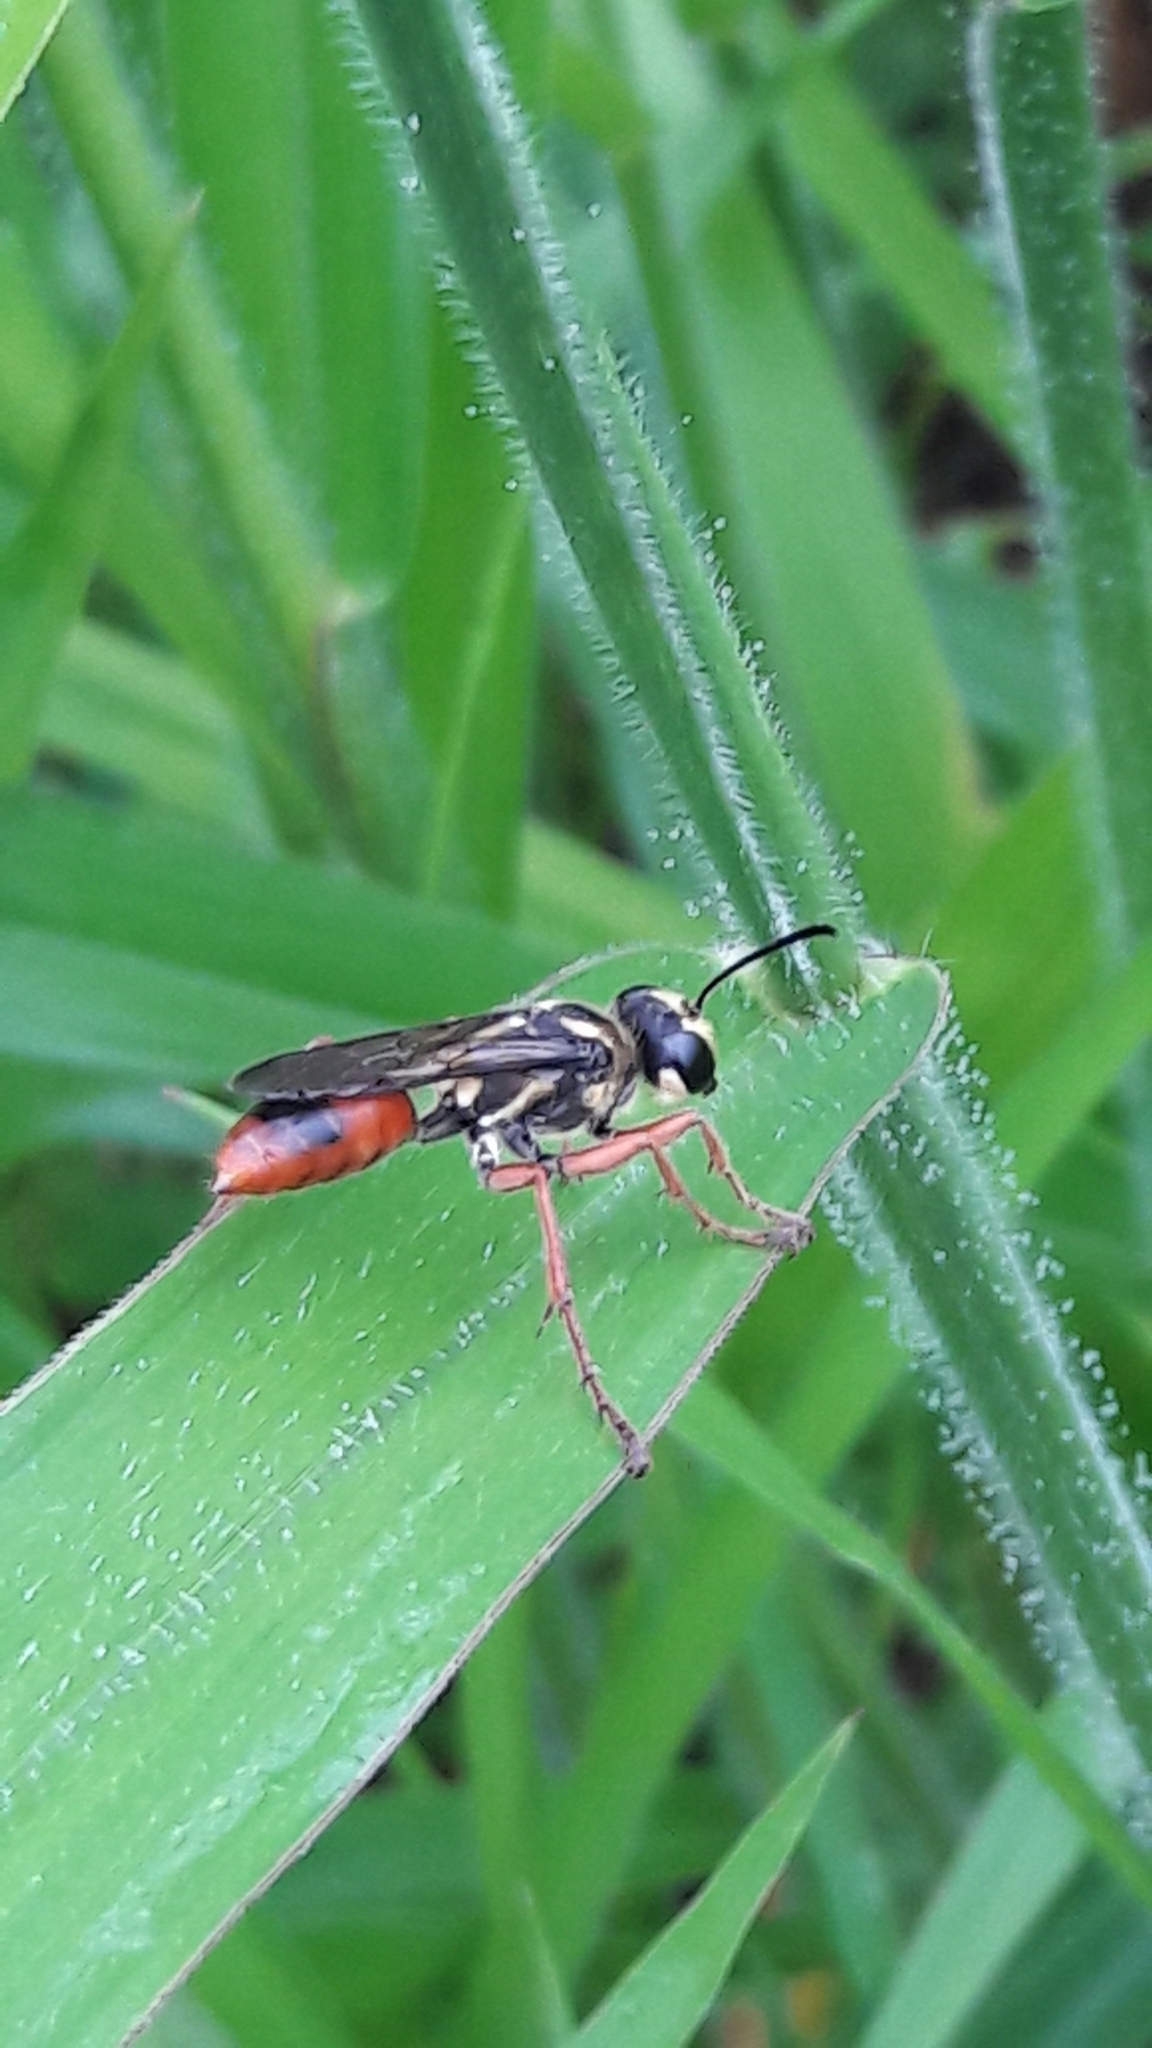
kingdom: Animalia
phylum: Arthropoda
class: Insecta
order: Hymenoptera
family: Sphecidae
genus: Sphex
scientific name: Sphex dorsalis
